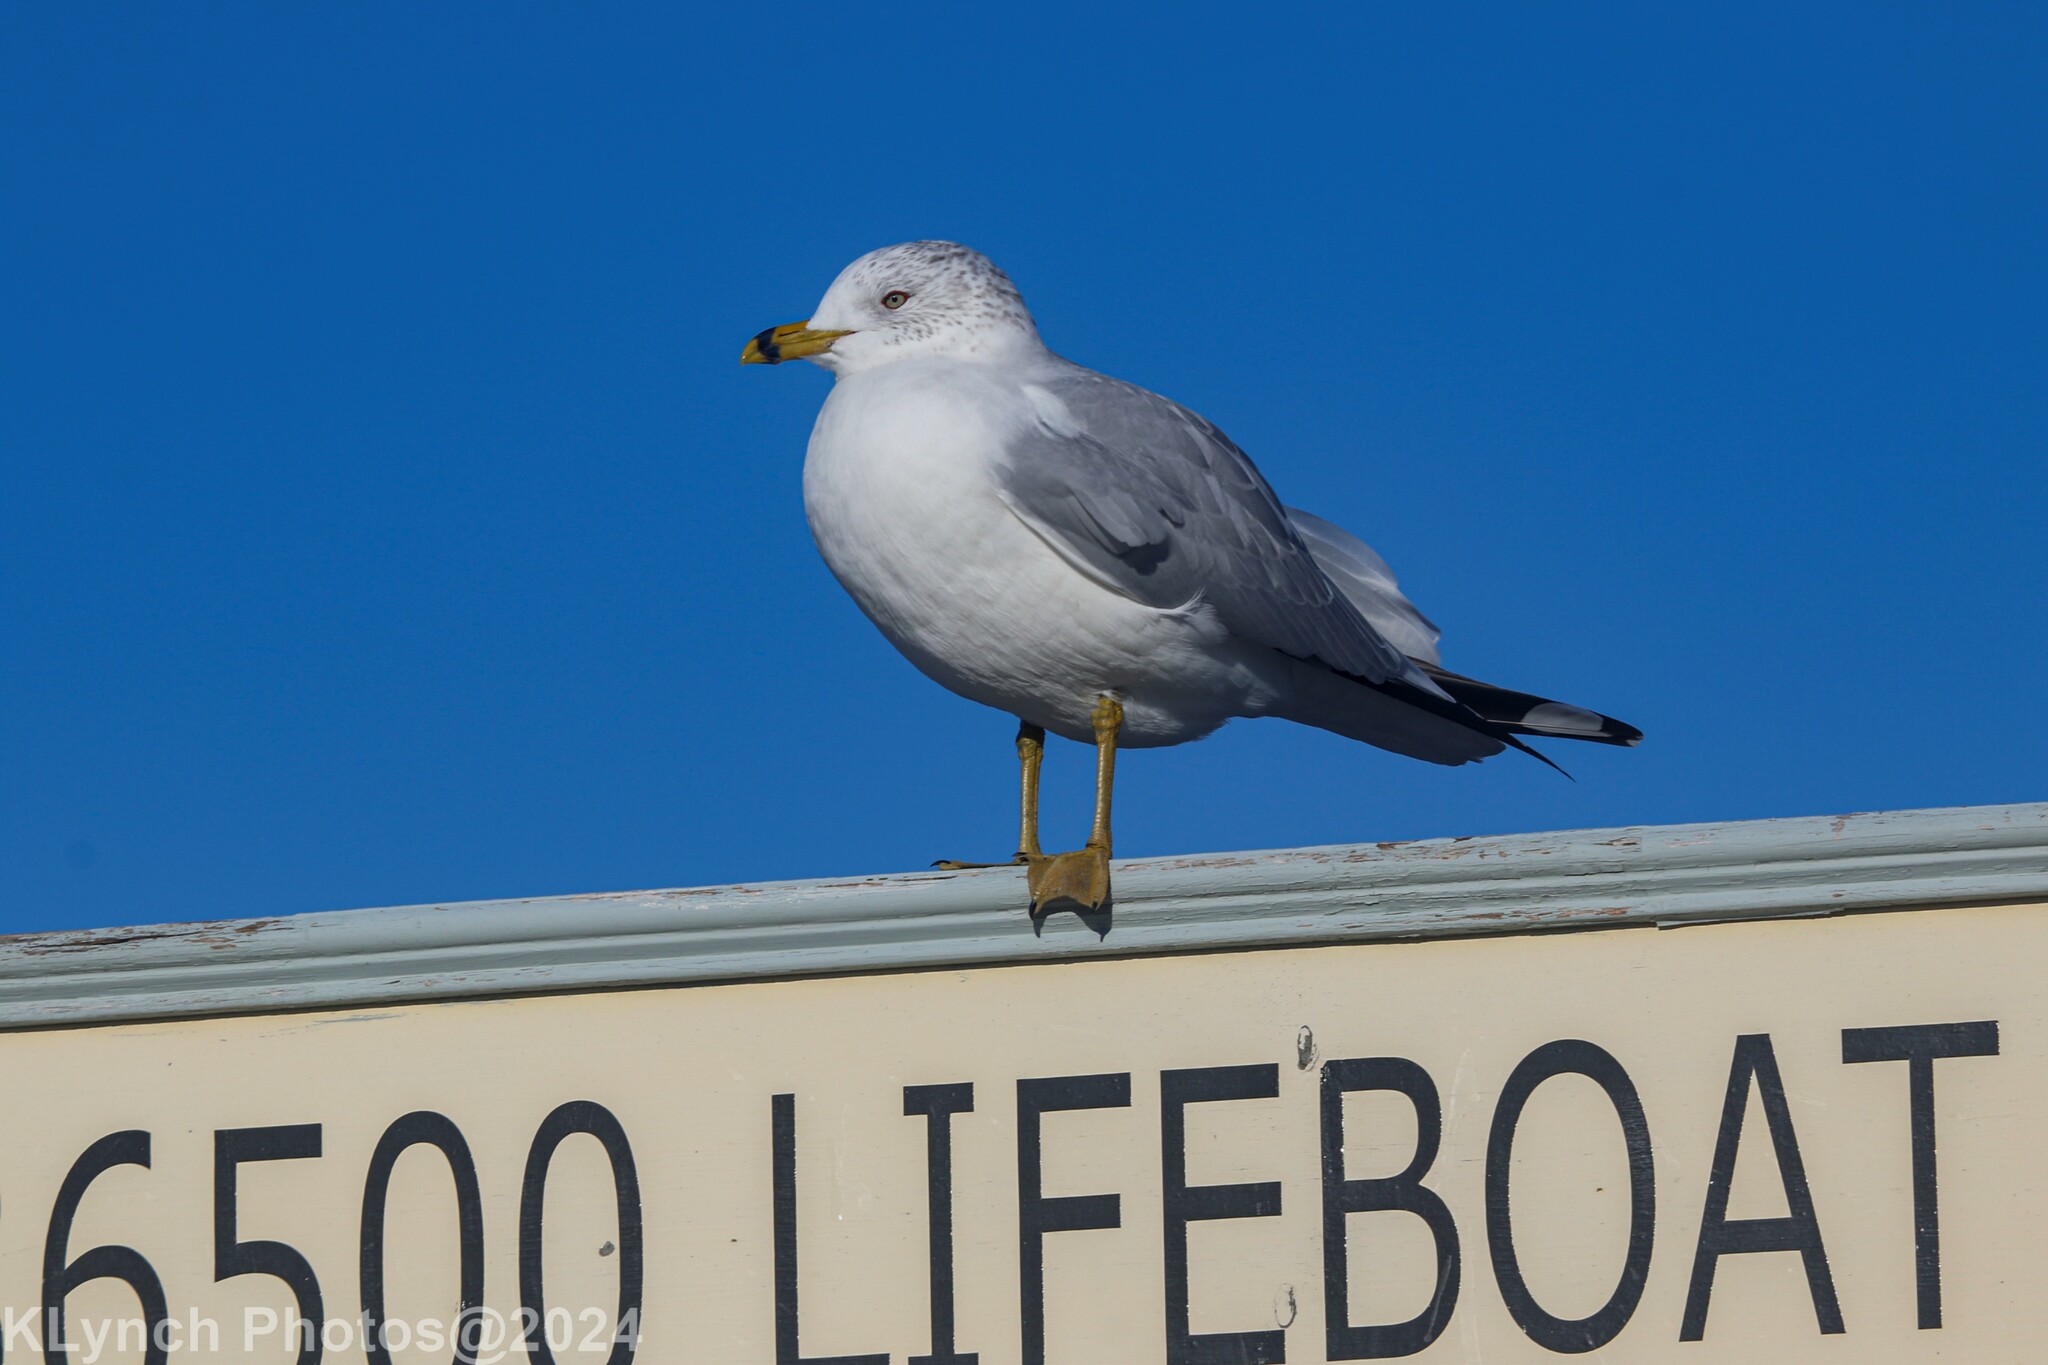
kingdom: Animalia
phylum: Chordata
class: Aves
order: Charadriiformes
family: Laridae
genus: Larus
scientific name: Larus delawarensis
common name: Ring-billed gull
